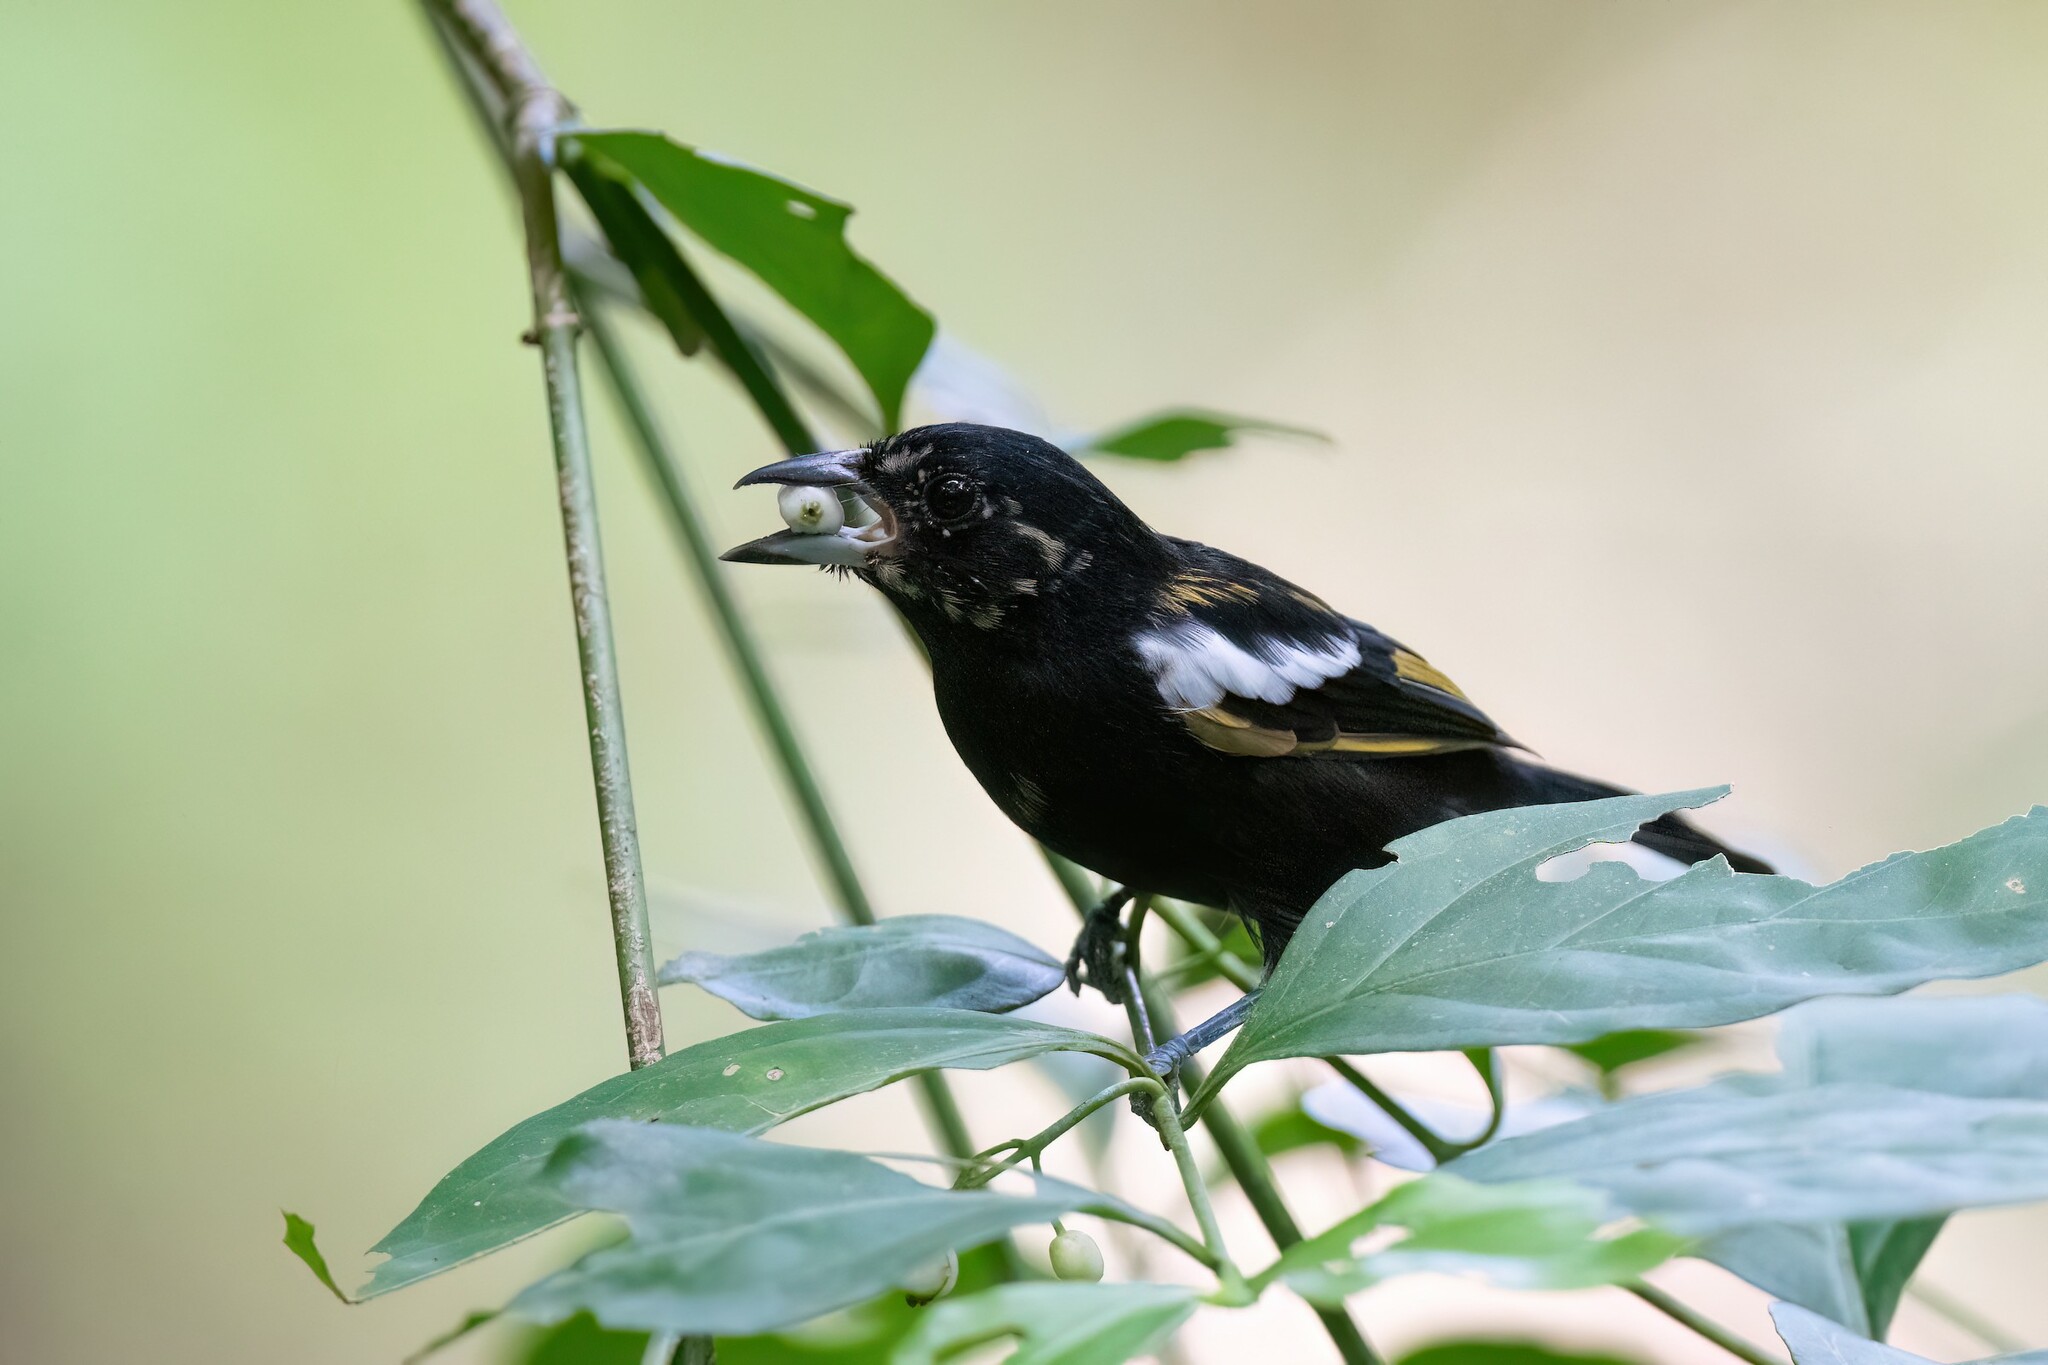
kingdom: Animalia
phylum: Chordata
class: Aves
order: Passeriformes
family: Thraupidae
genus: Loriotus
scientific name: Loriotus luctuosus
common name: White-shouldered tanager
